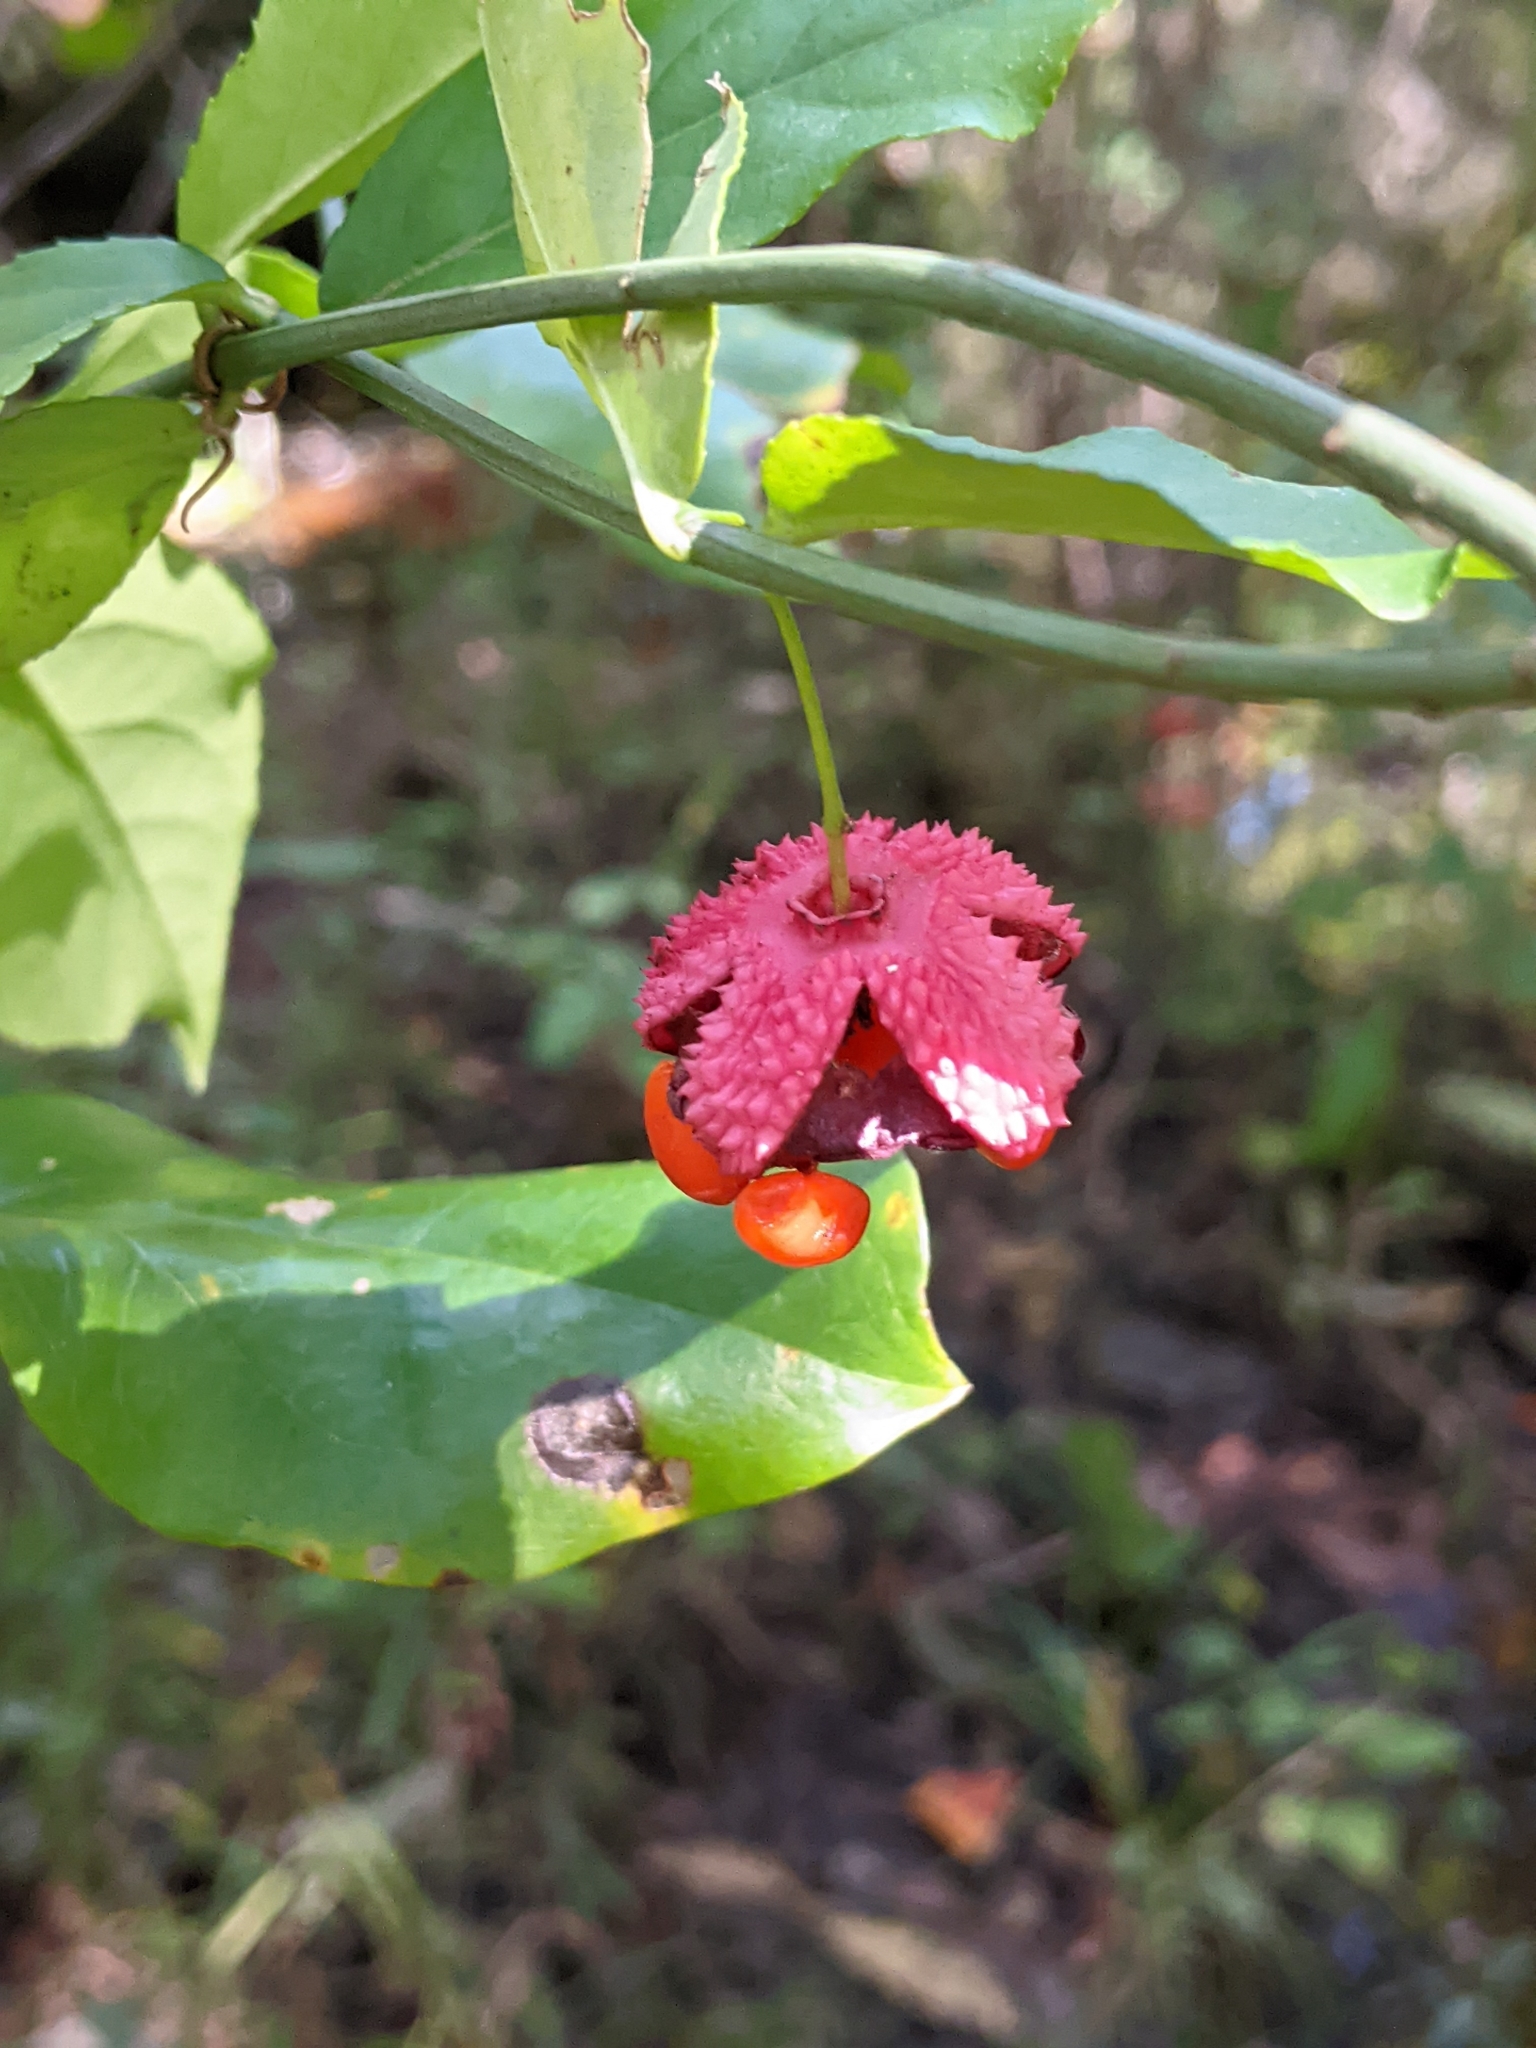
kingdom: Plantae
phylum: Tracheophyta
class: Magnoliopsida
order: Celastrales
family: Celastraceae
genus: Euonymus
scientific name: Euonymus americanus
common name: Bursting-heart
